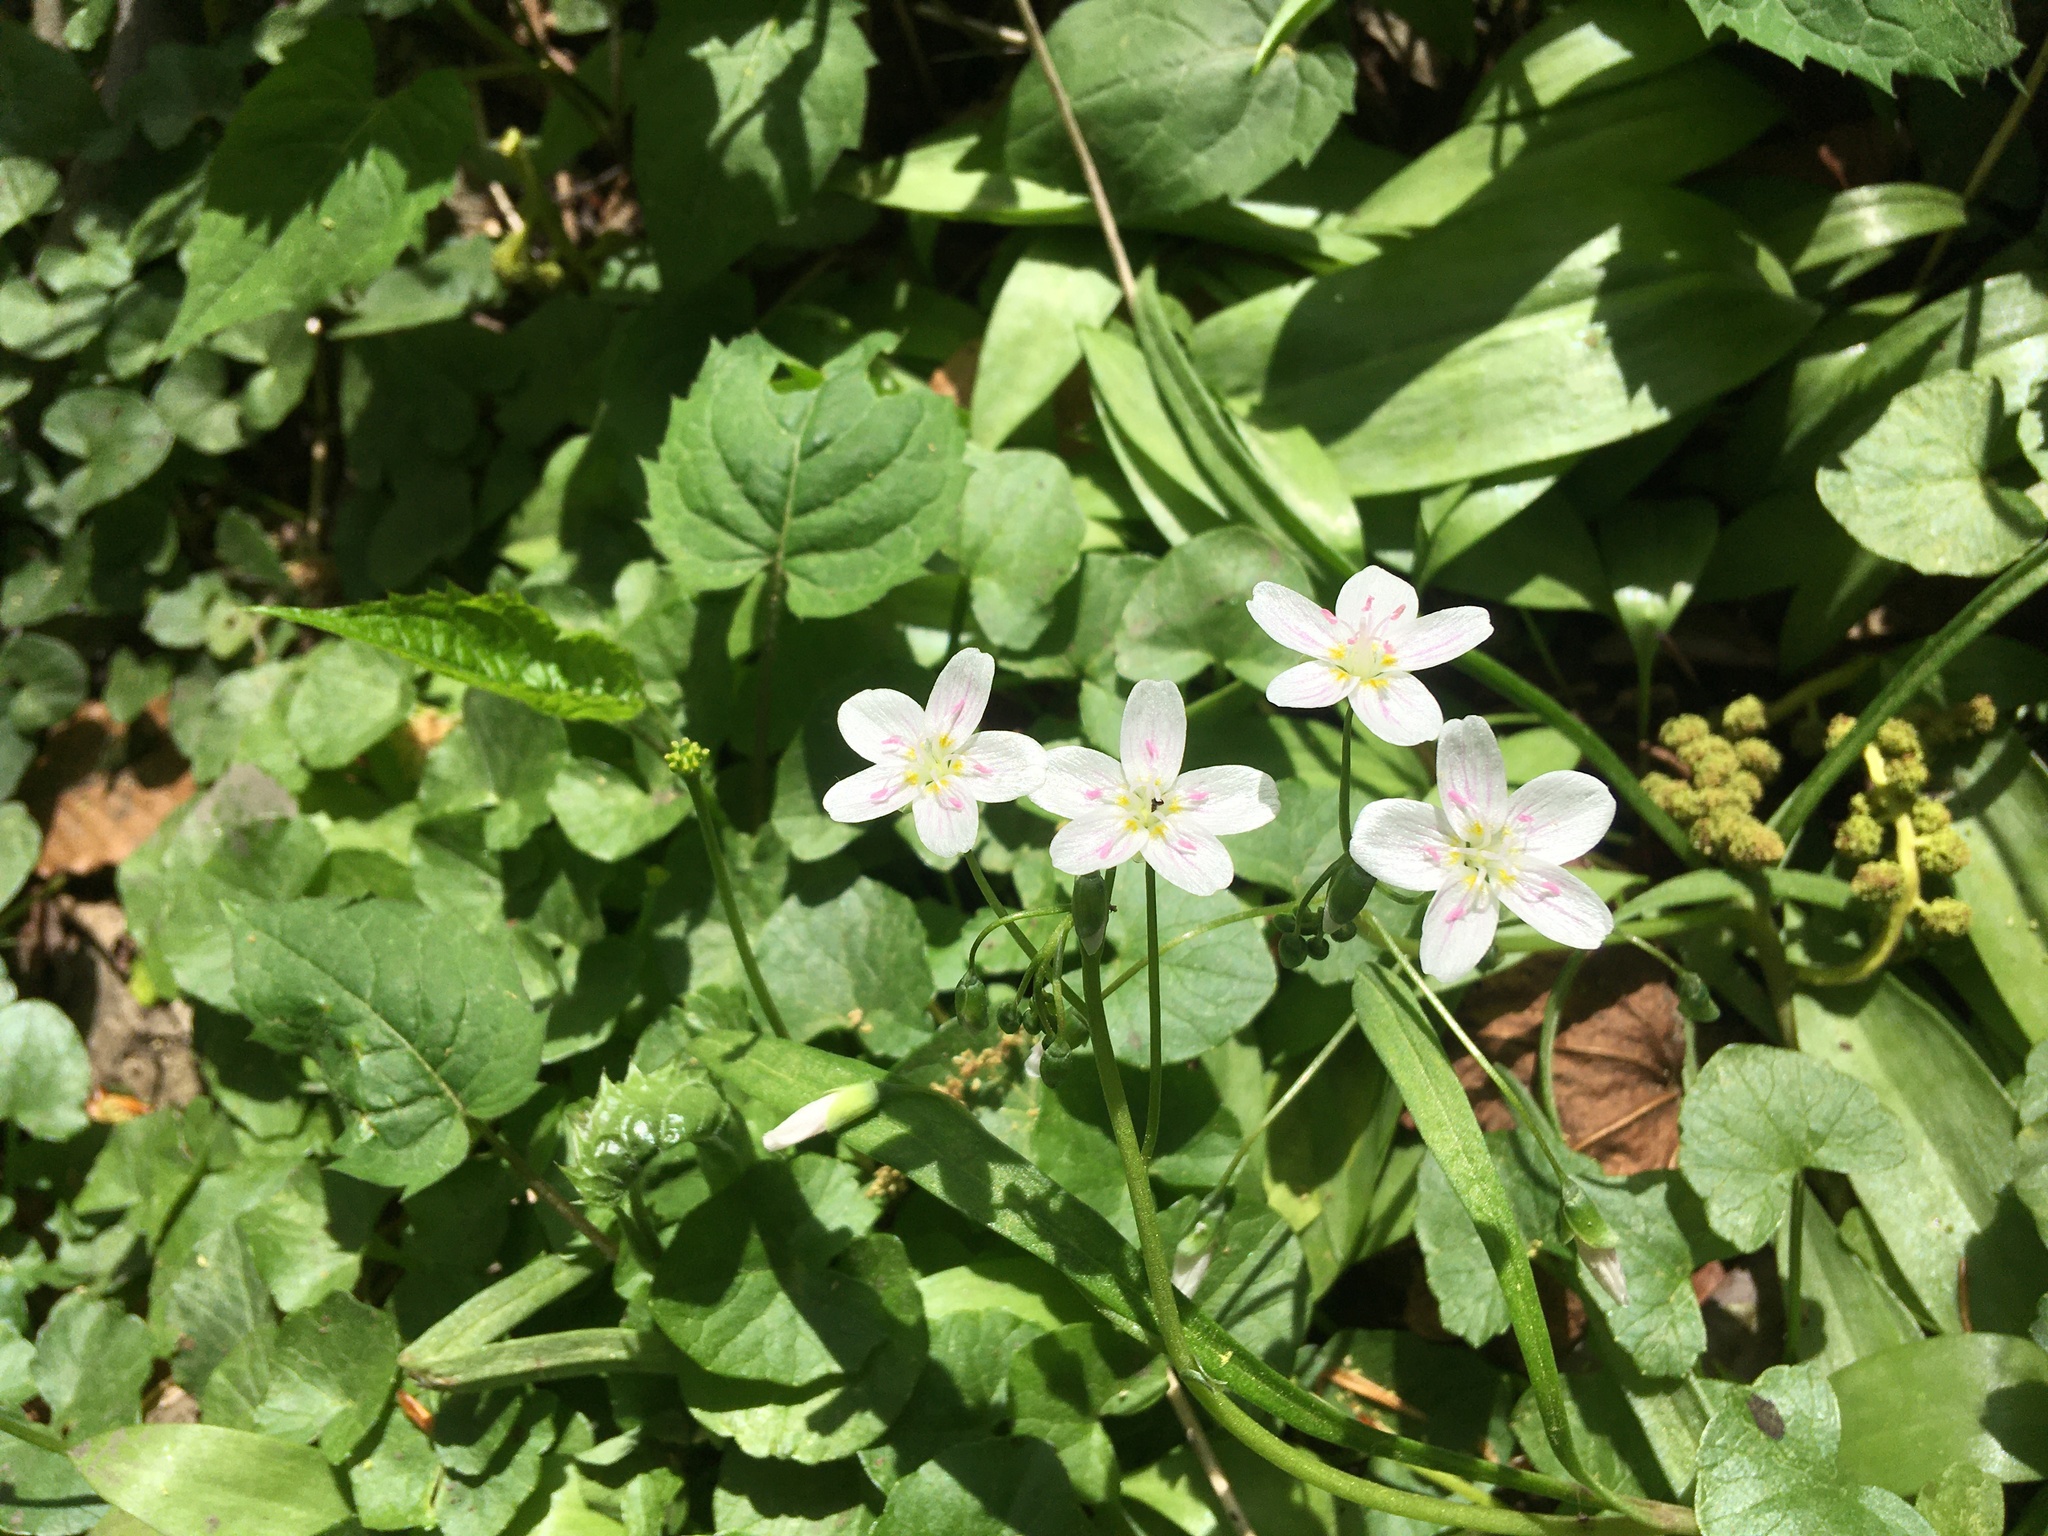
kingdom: Plantae
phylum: Tracheophyta
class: Magnoliopsida
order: Caryophyllales
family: Montiaceae
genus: Claytonia
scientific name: Claytonia virginica
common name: Virginia springbeauty
